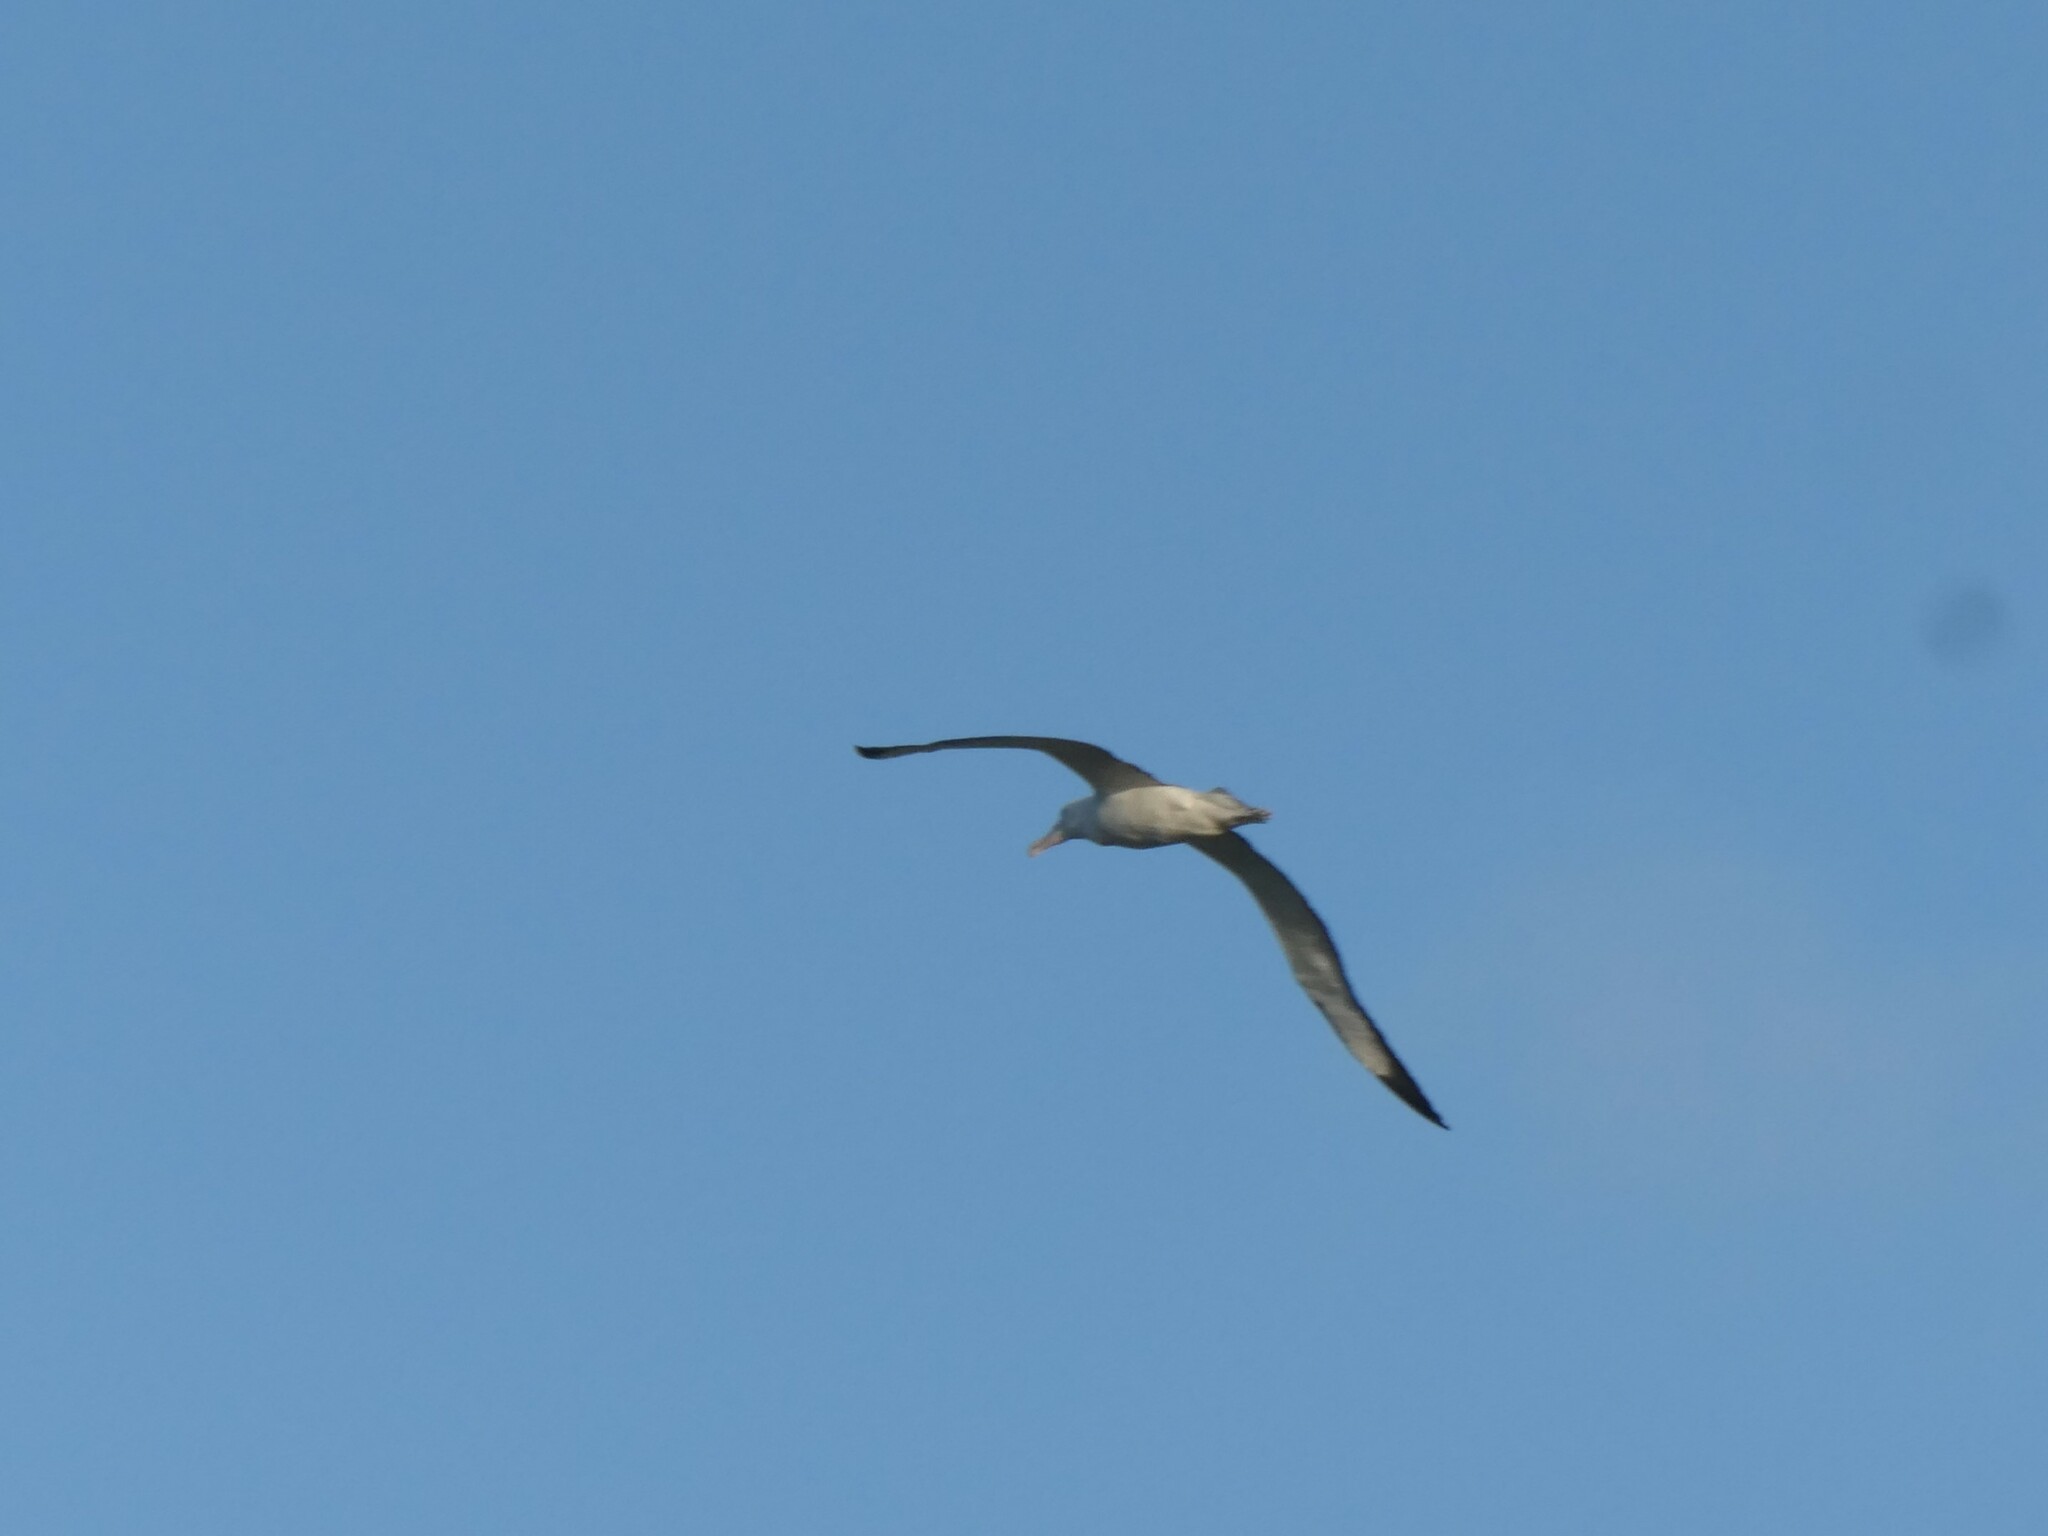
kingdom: Animalia
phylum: Chordata
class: Aves
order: Procellariiformes
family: Diomedeidae
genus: Diomedea
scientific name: Diomedea sanfordi
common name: Northern royal albatross
